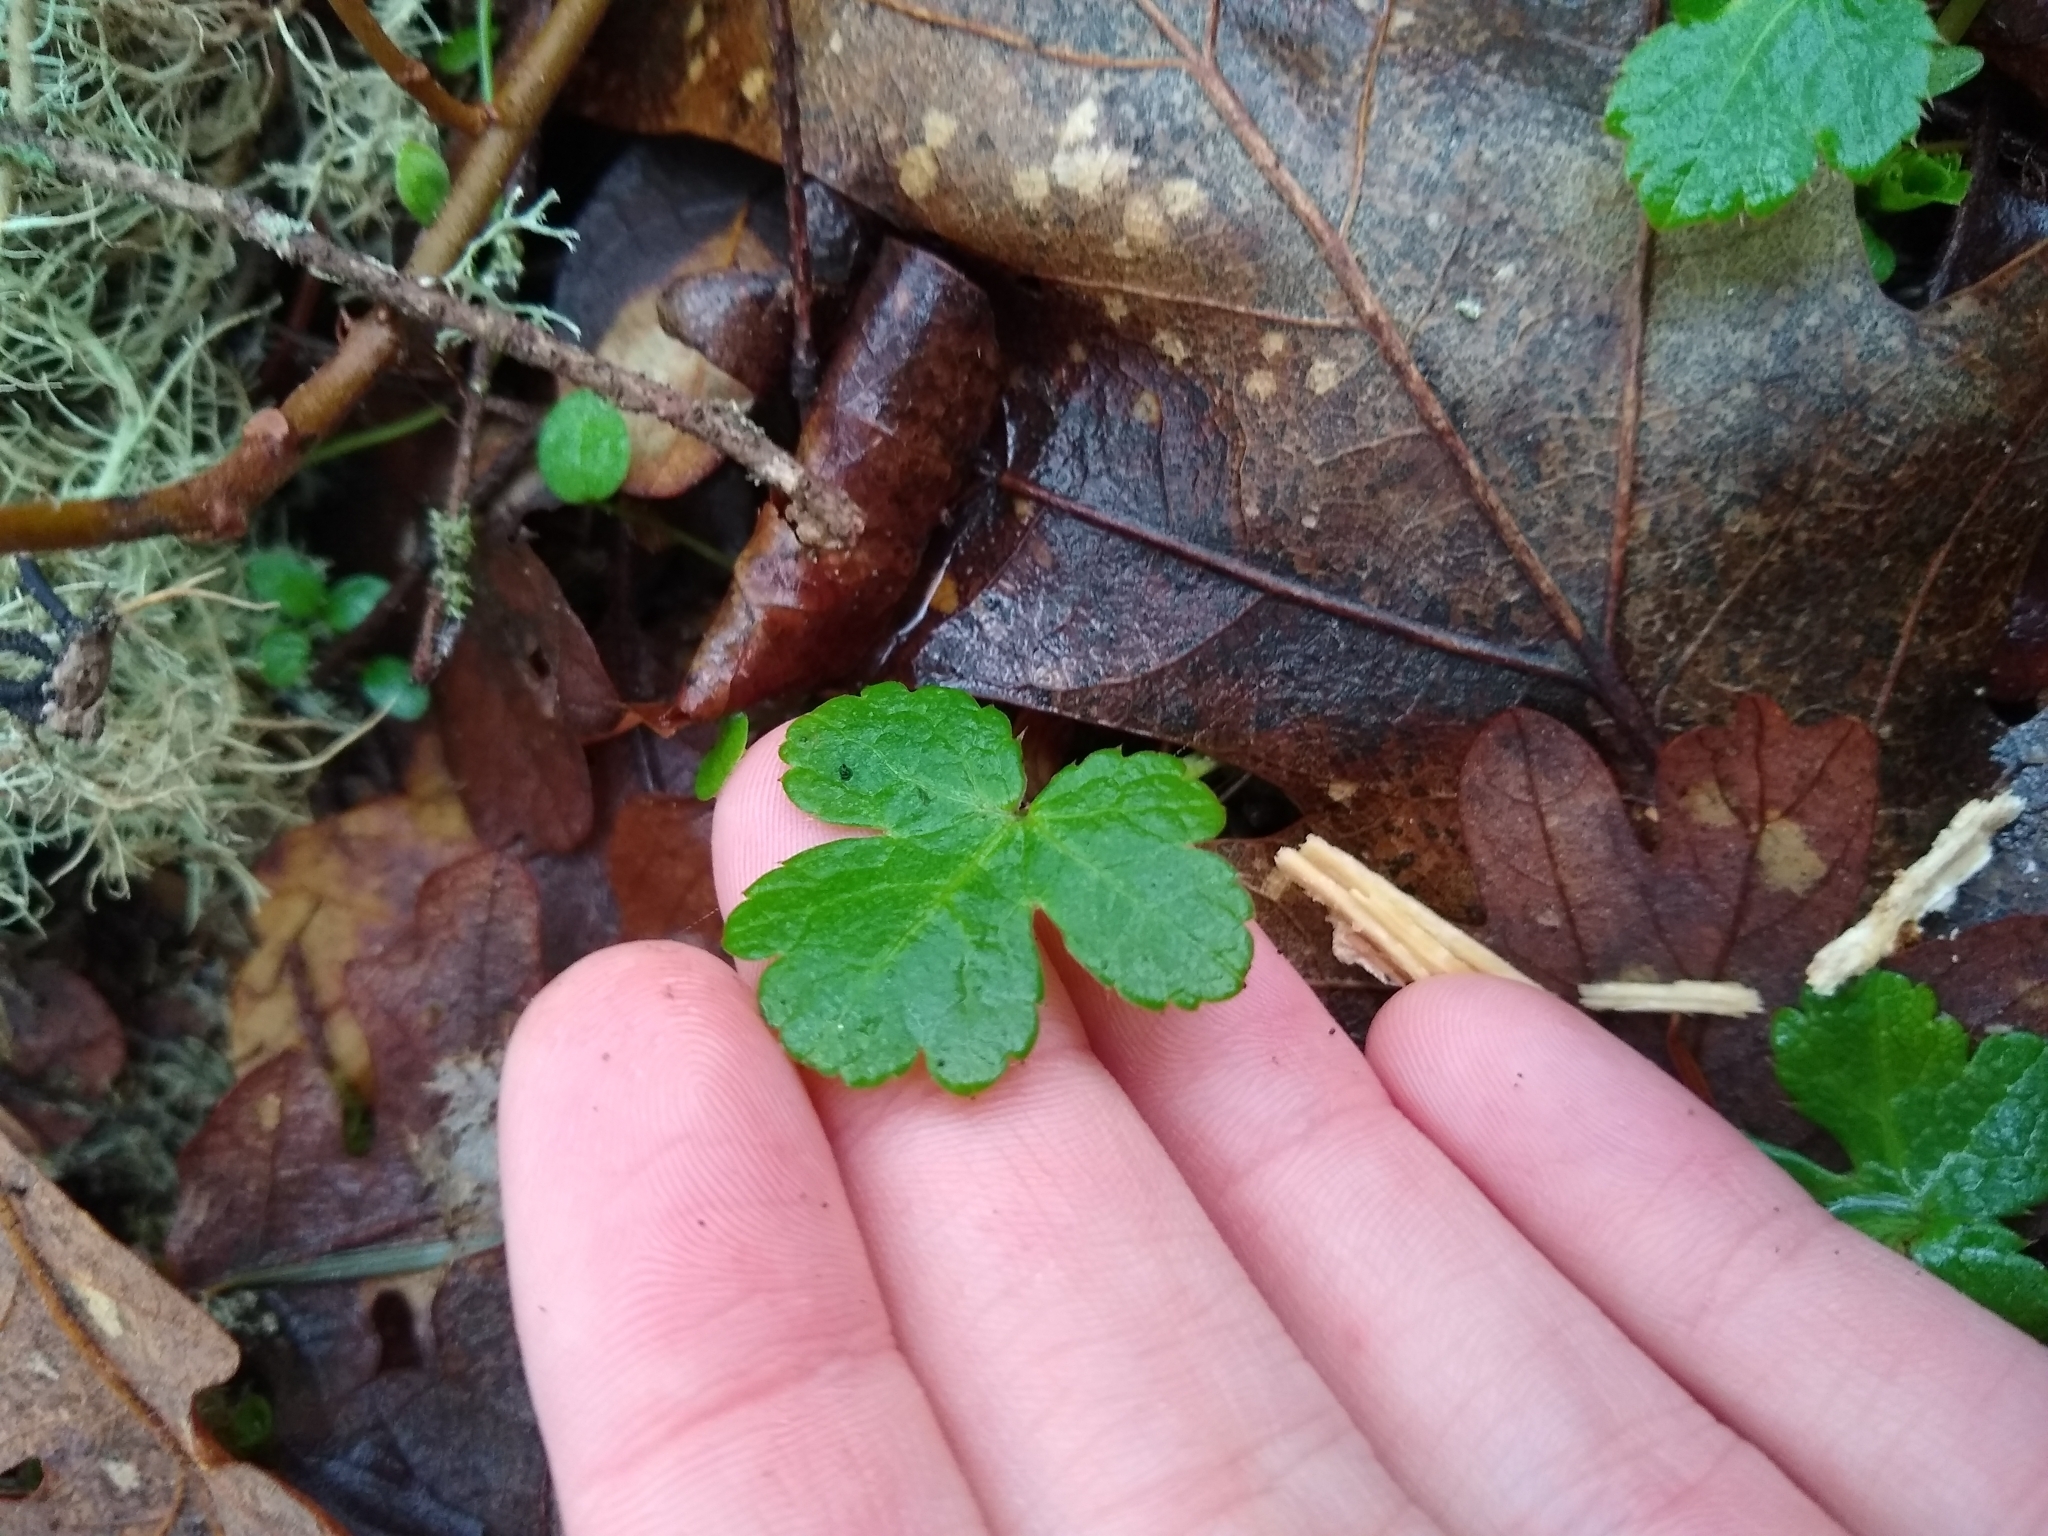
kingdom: Plantae
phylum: Tracheophyta
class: Magnoliopsida
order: Apiales
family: Apiaceae
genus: Sanicula
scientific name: Sanicula crassicaulis
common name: Western snakeroot
